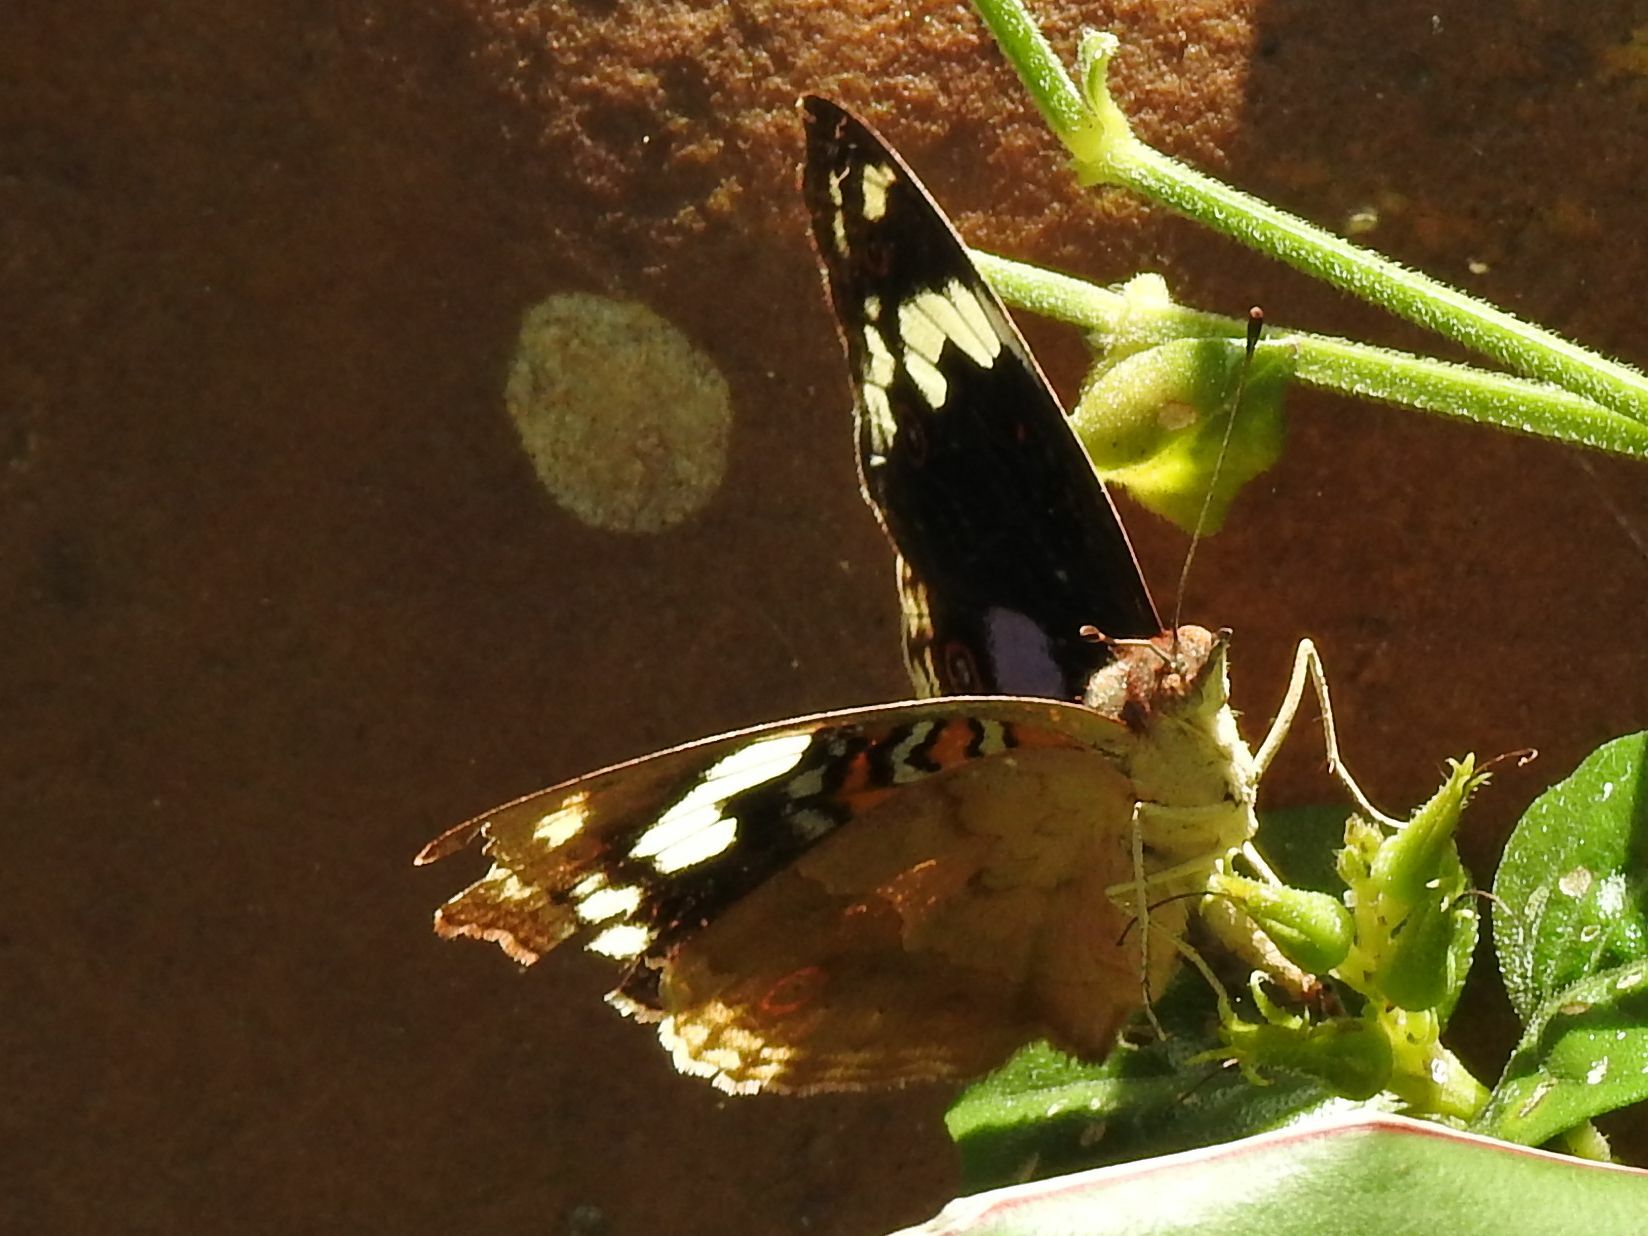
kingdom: Animalia
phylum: Arthropoda
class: Insecta
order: Lepidoptera
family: Nymphalidae
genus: Junonia
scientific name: Junonia oenone
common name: Dark blue pansy
